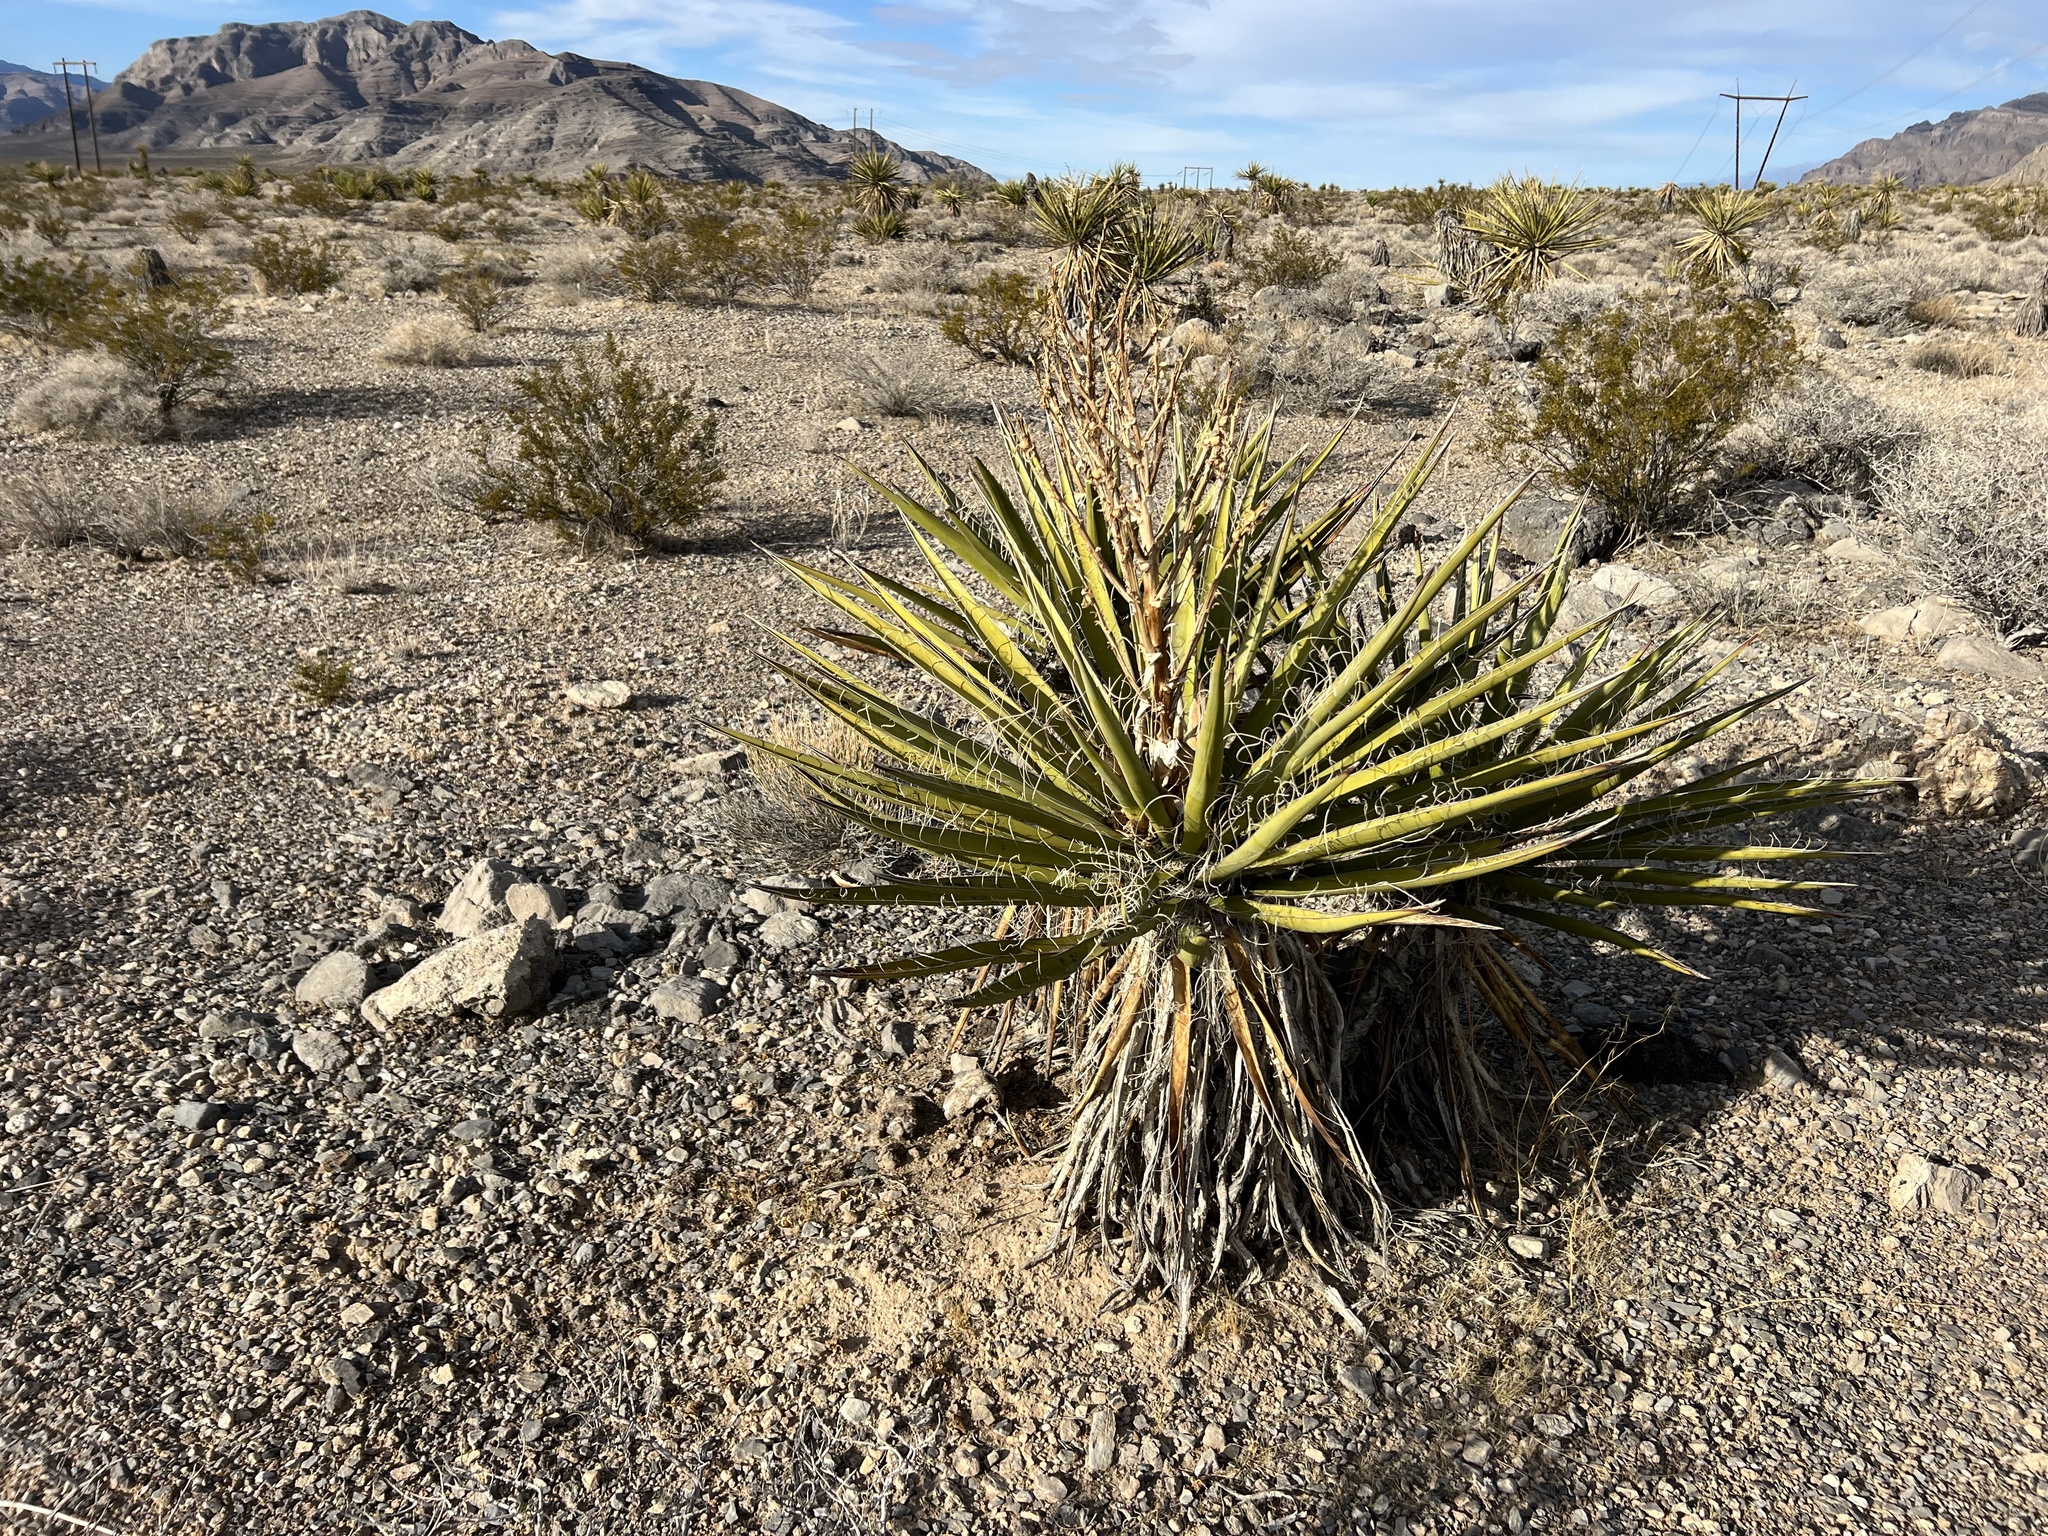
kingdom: Plantae
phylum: Tracheophyta
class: Liliopsida
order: Asparagales
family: Asparagaceae
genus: Yucca
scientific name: Yucca schidigera
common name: Mojave yucca
